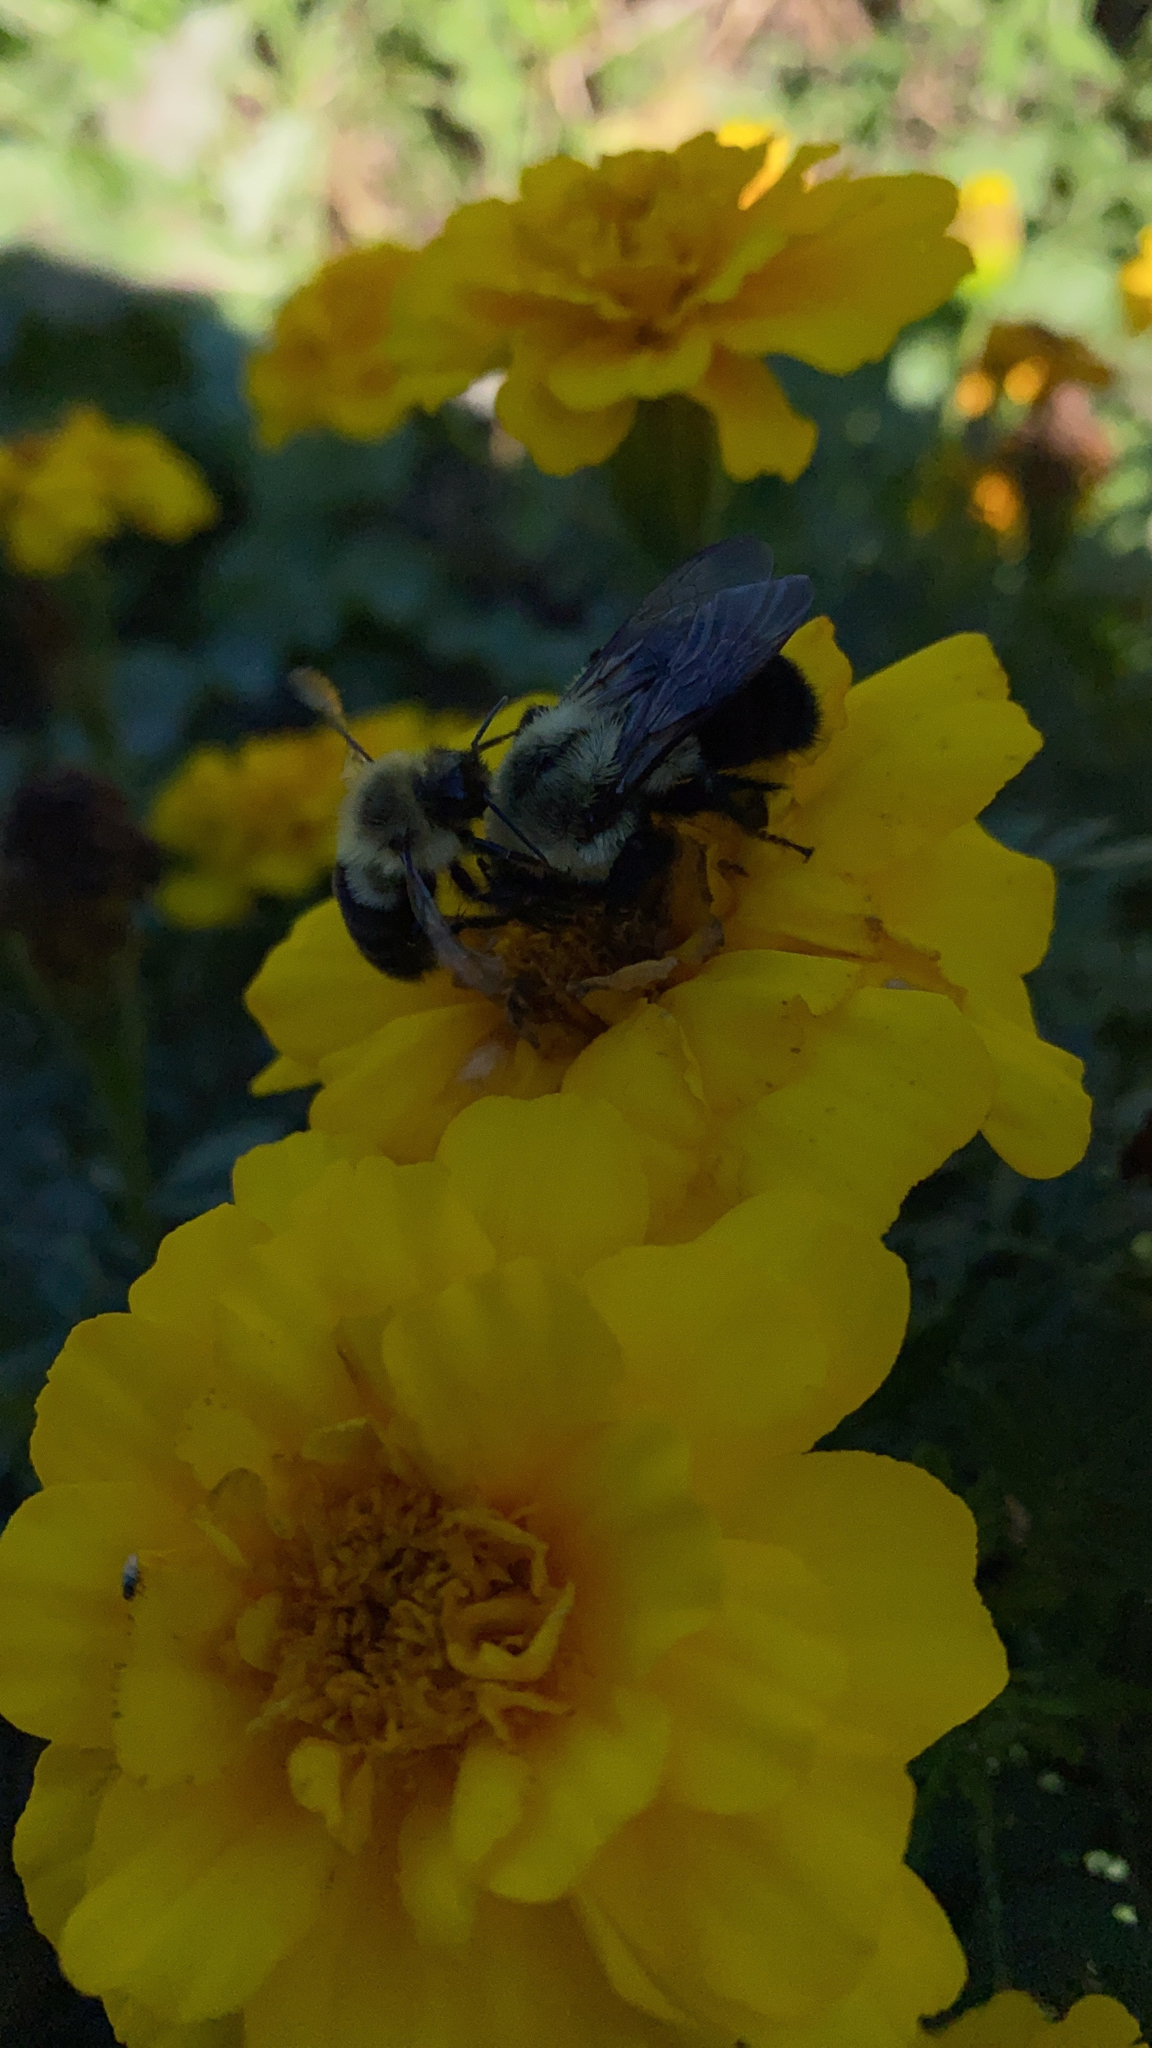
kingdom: Animalia
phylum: Arthropoda
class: Insecta
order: Hymenoptera
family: Apidae
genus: Bombus
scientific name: Bombus impatiens
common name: Common eastern bumble bee
